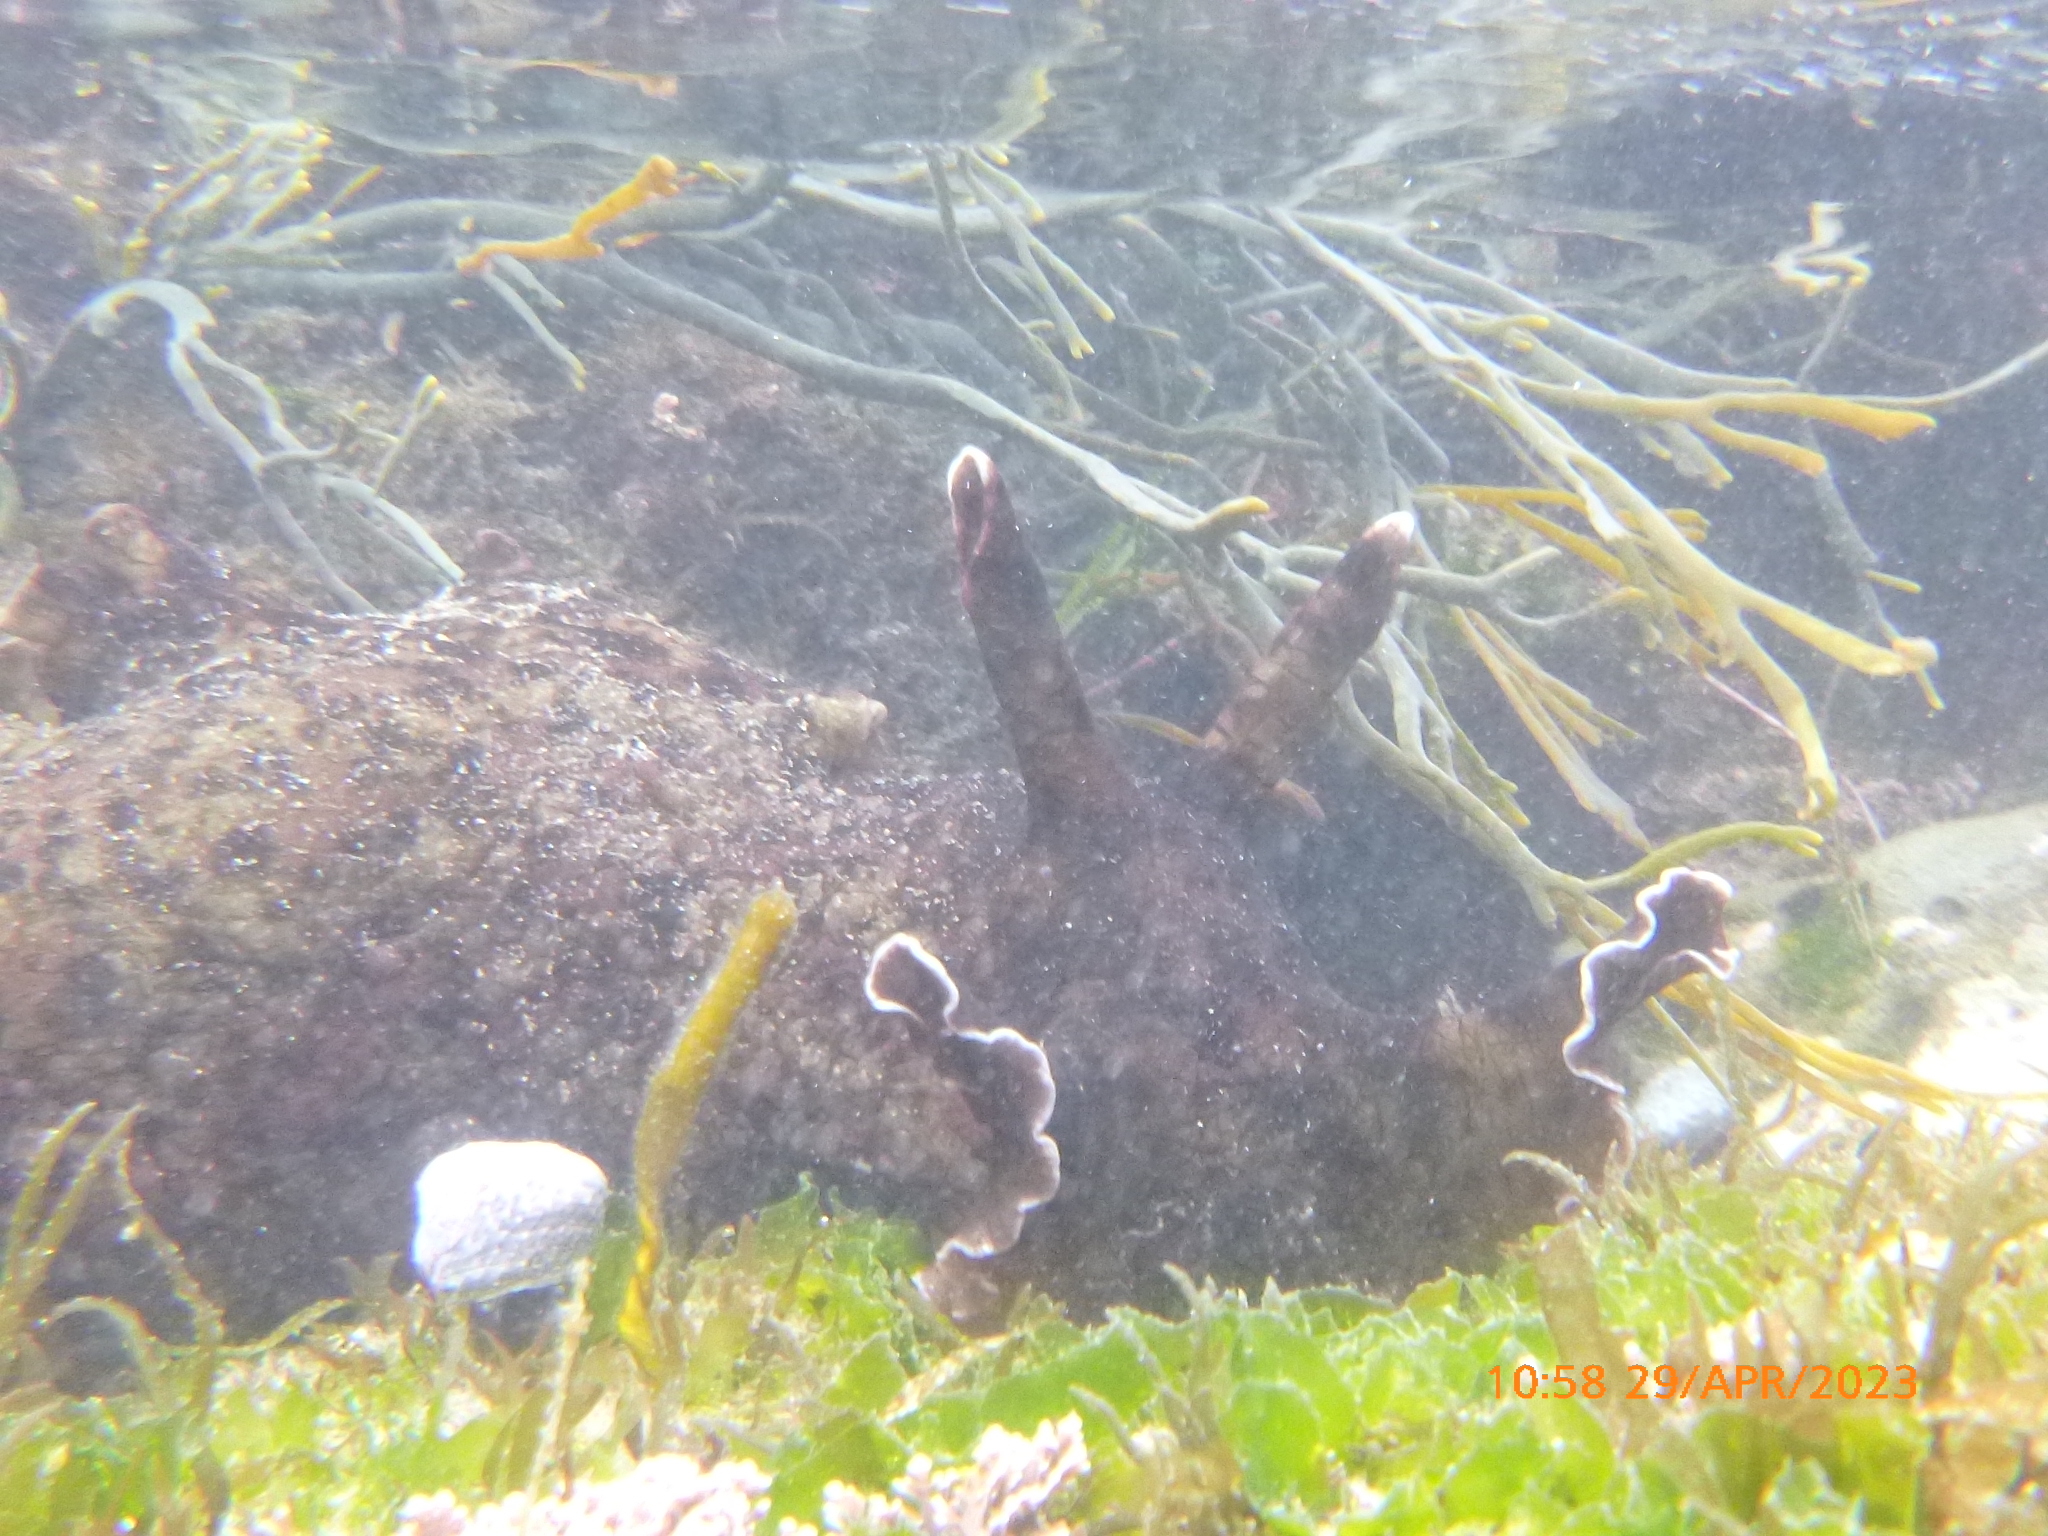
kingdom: Animalia
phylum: Mollusca
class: Gastropoda
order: Aplysiida
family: Aplysiidae
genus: Aplysia
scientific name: Aplysia californica
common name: California seahare
